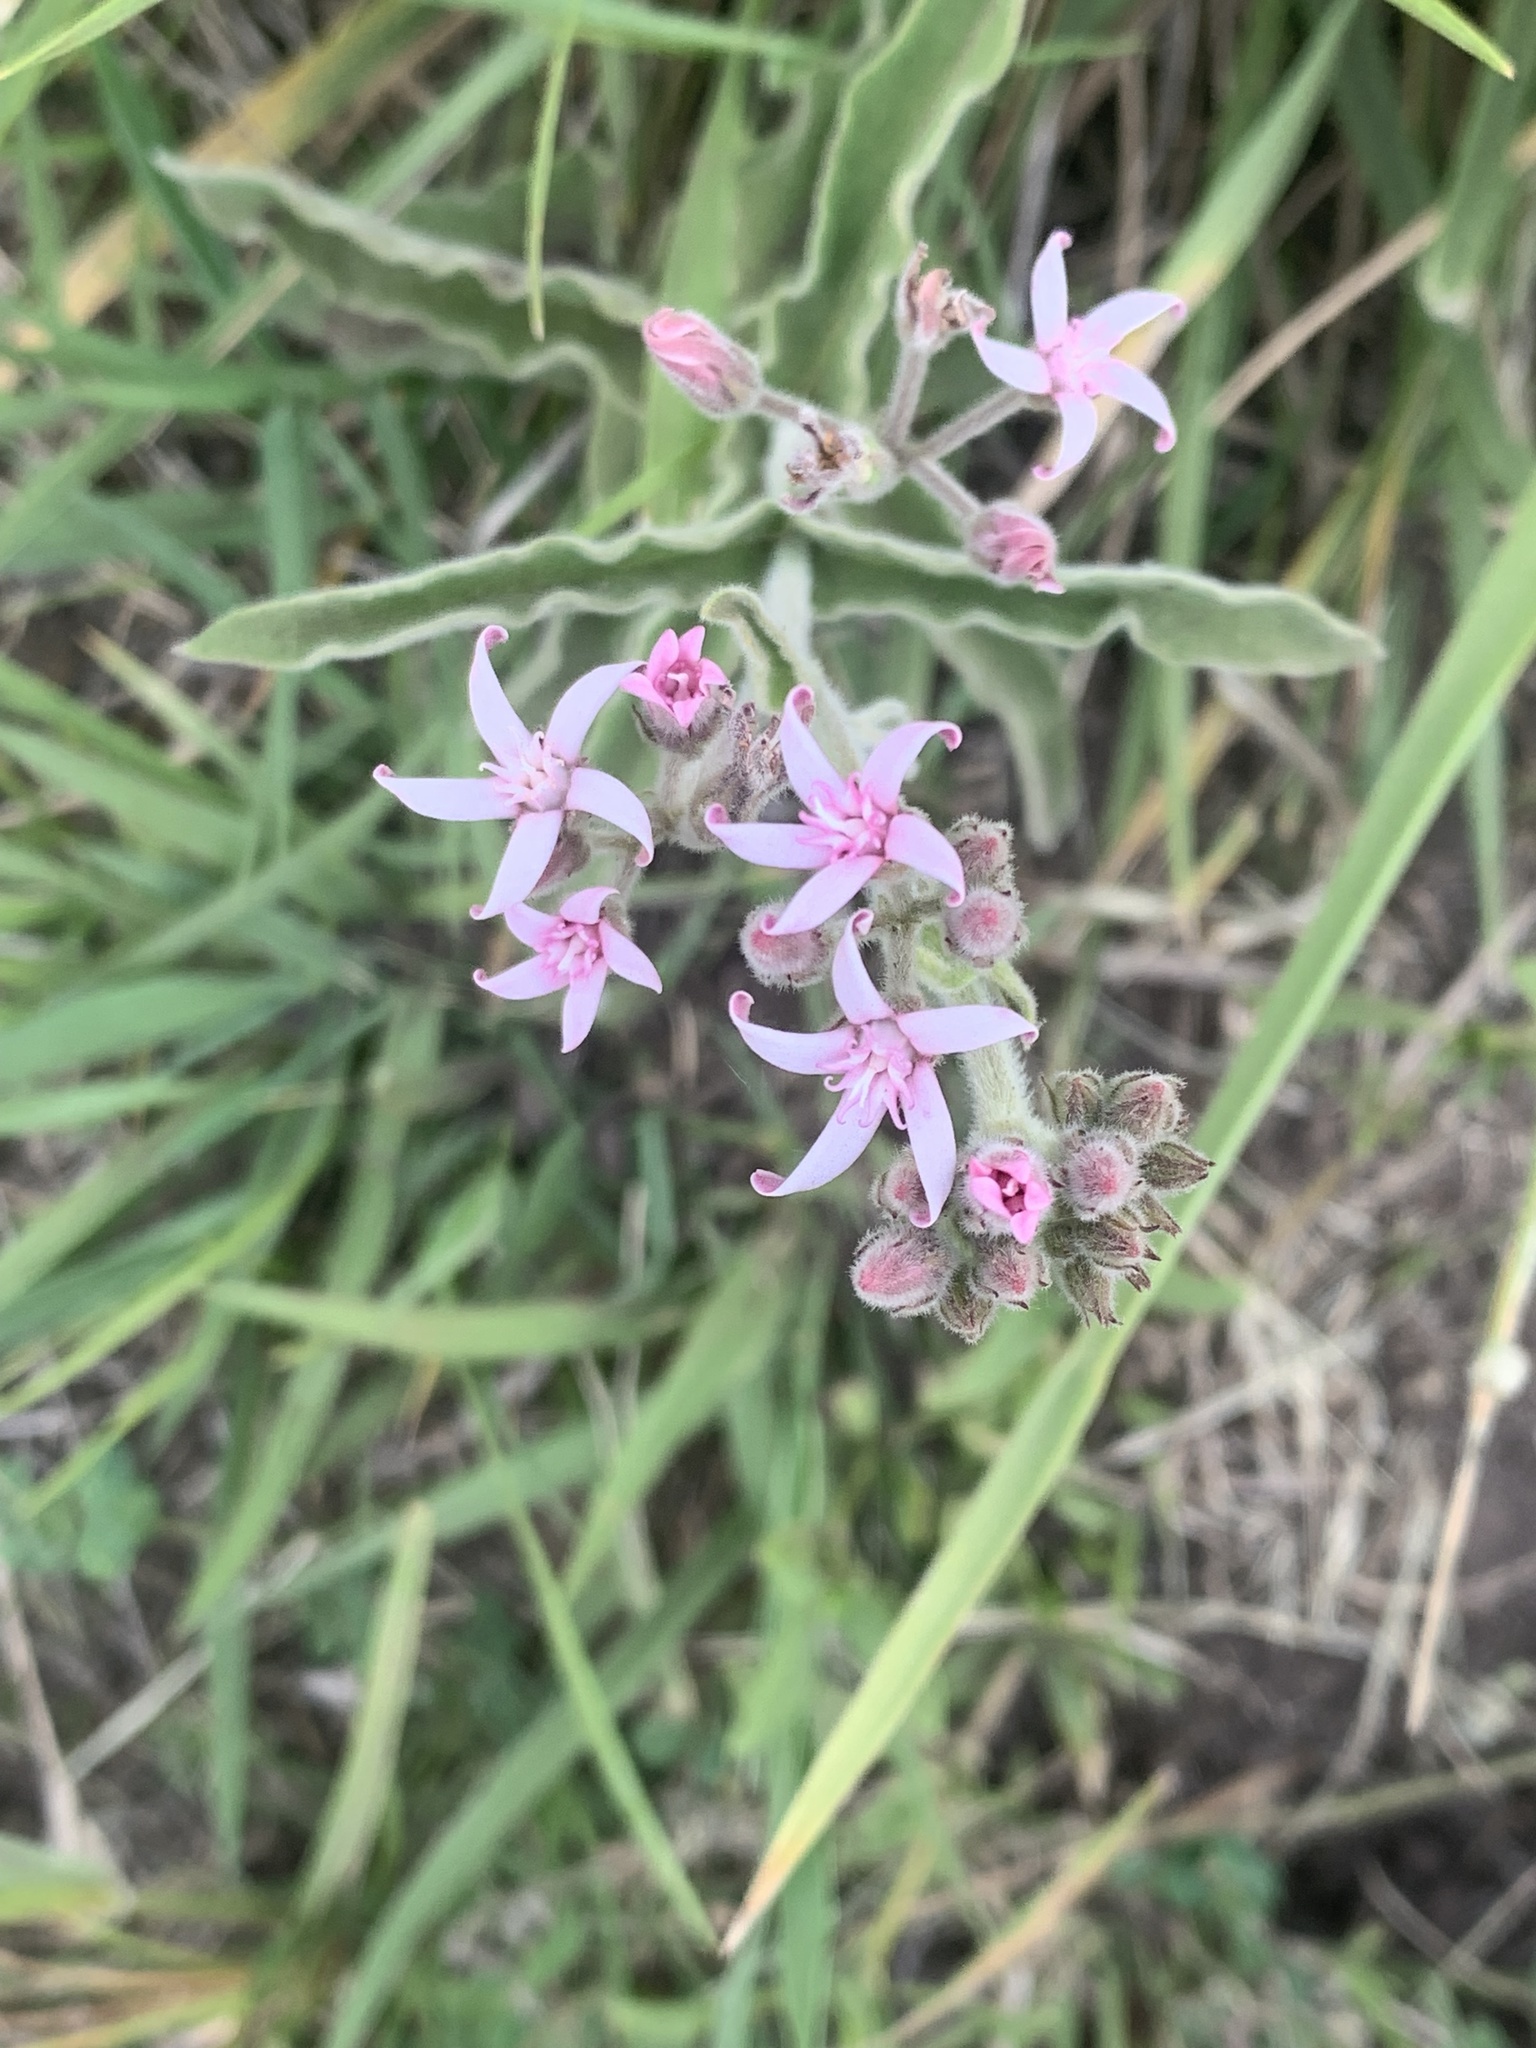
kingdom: Plantae
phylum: Tracheophyta
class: Magnoliopsida
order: Gentianales
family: Apocynaceae
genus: Oxypetalum
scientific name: Oxypetalum solanoides
